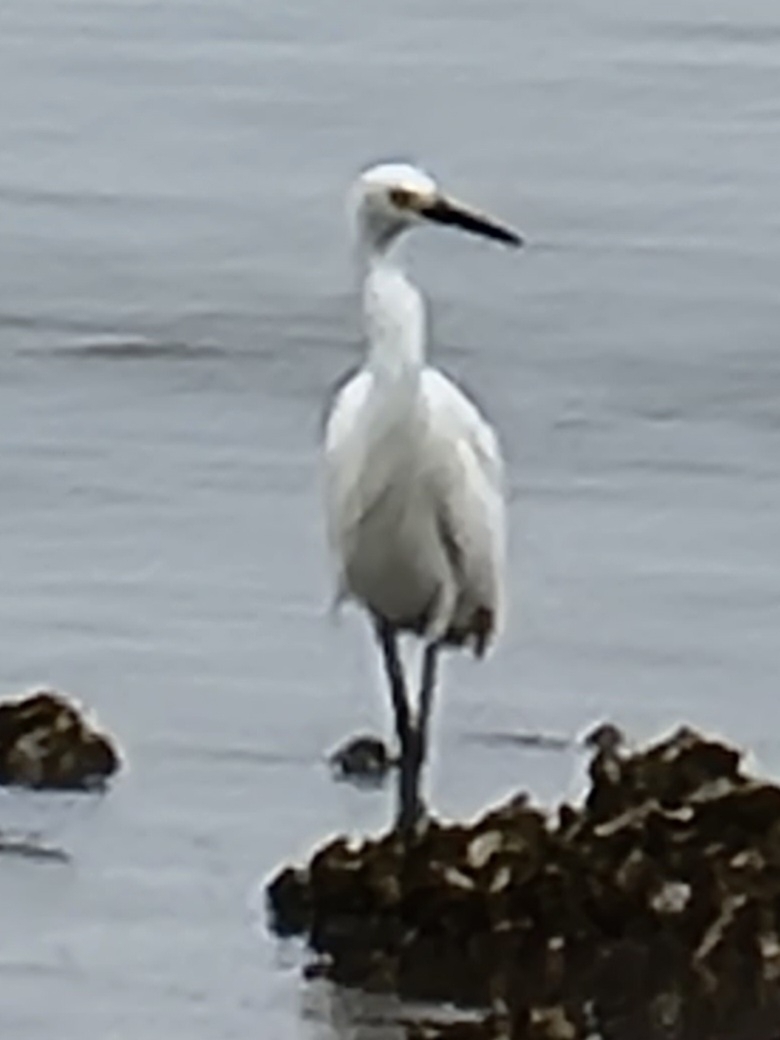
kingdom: Animalia
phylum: Chordata
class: Aves
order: Pelecaniformes
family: Ardeidae
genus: Egretta
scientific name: Egretta garzetta
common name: Little egret
